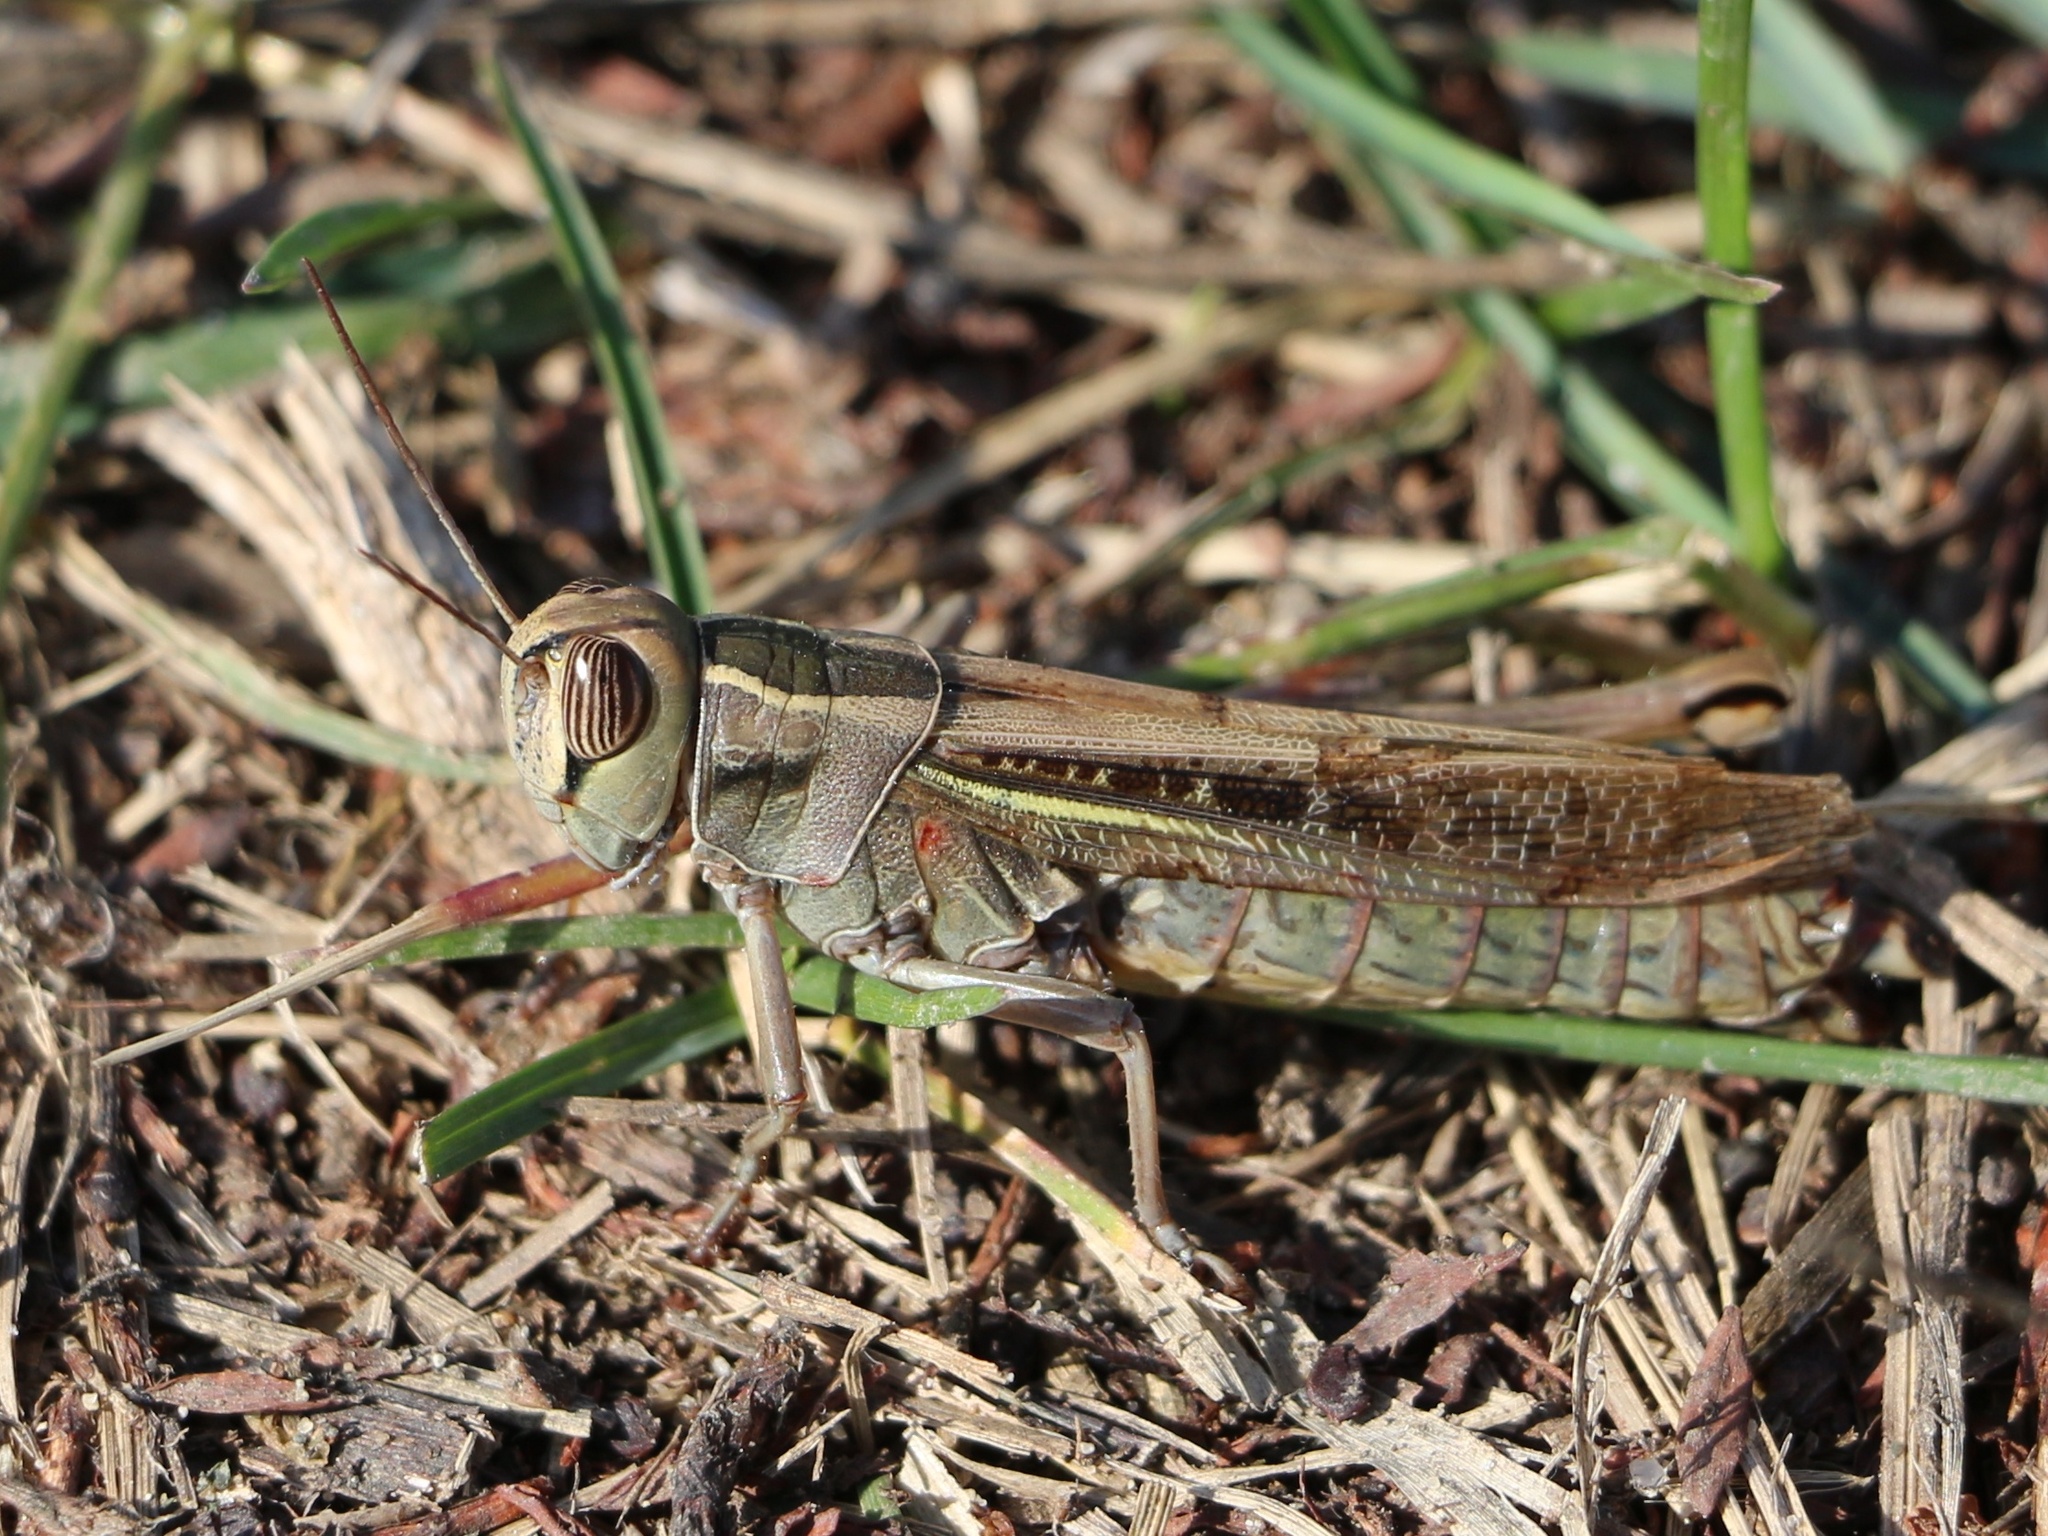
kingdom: Animalia
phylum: Arthropoda
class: Insecta
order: Orthoptera
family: Acrididae
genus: Eyprepocnemis
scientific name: Eyprepocnemis plorans
